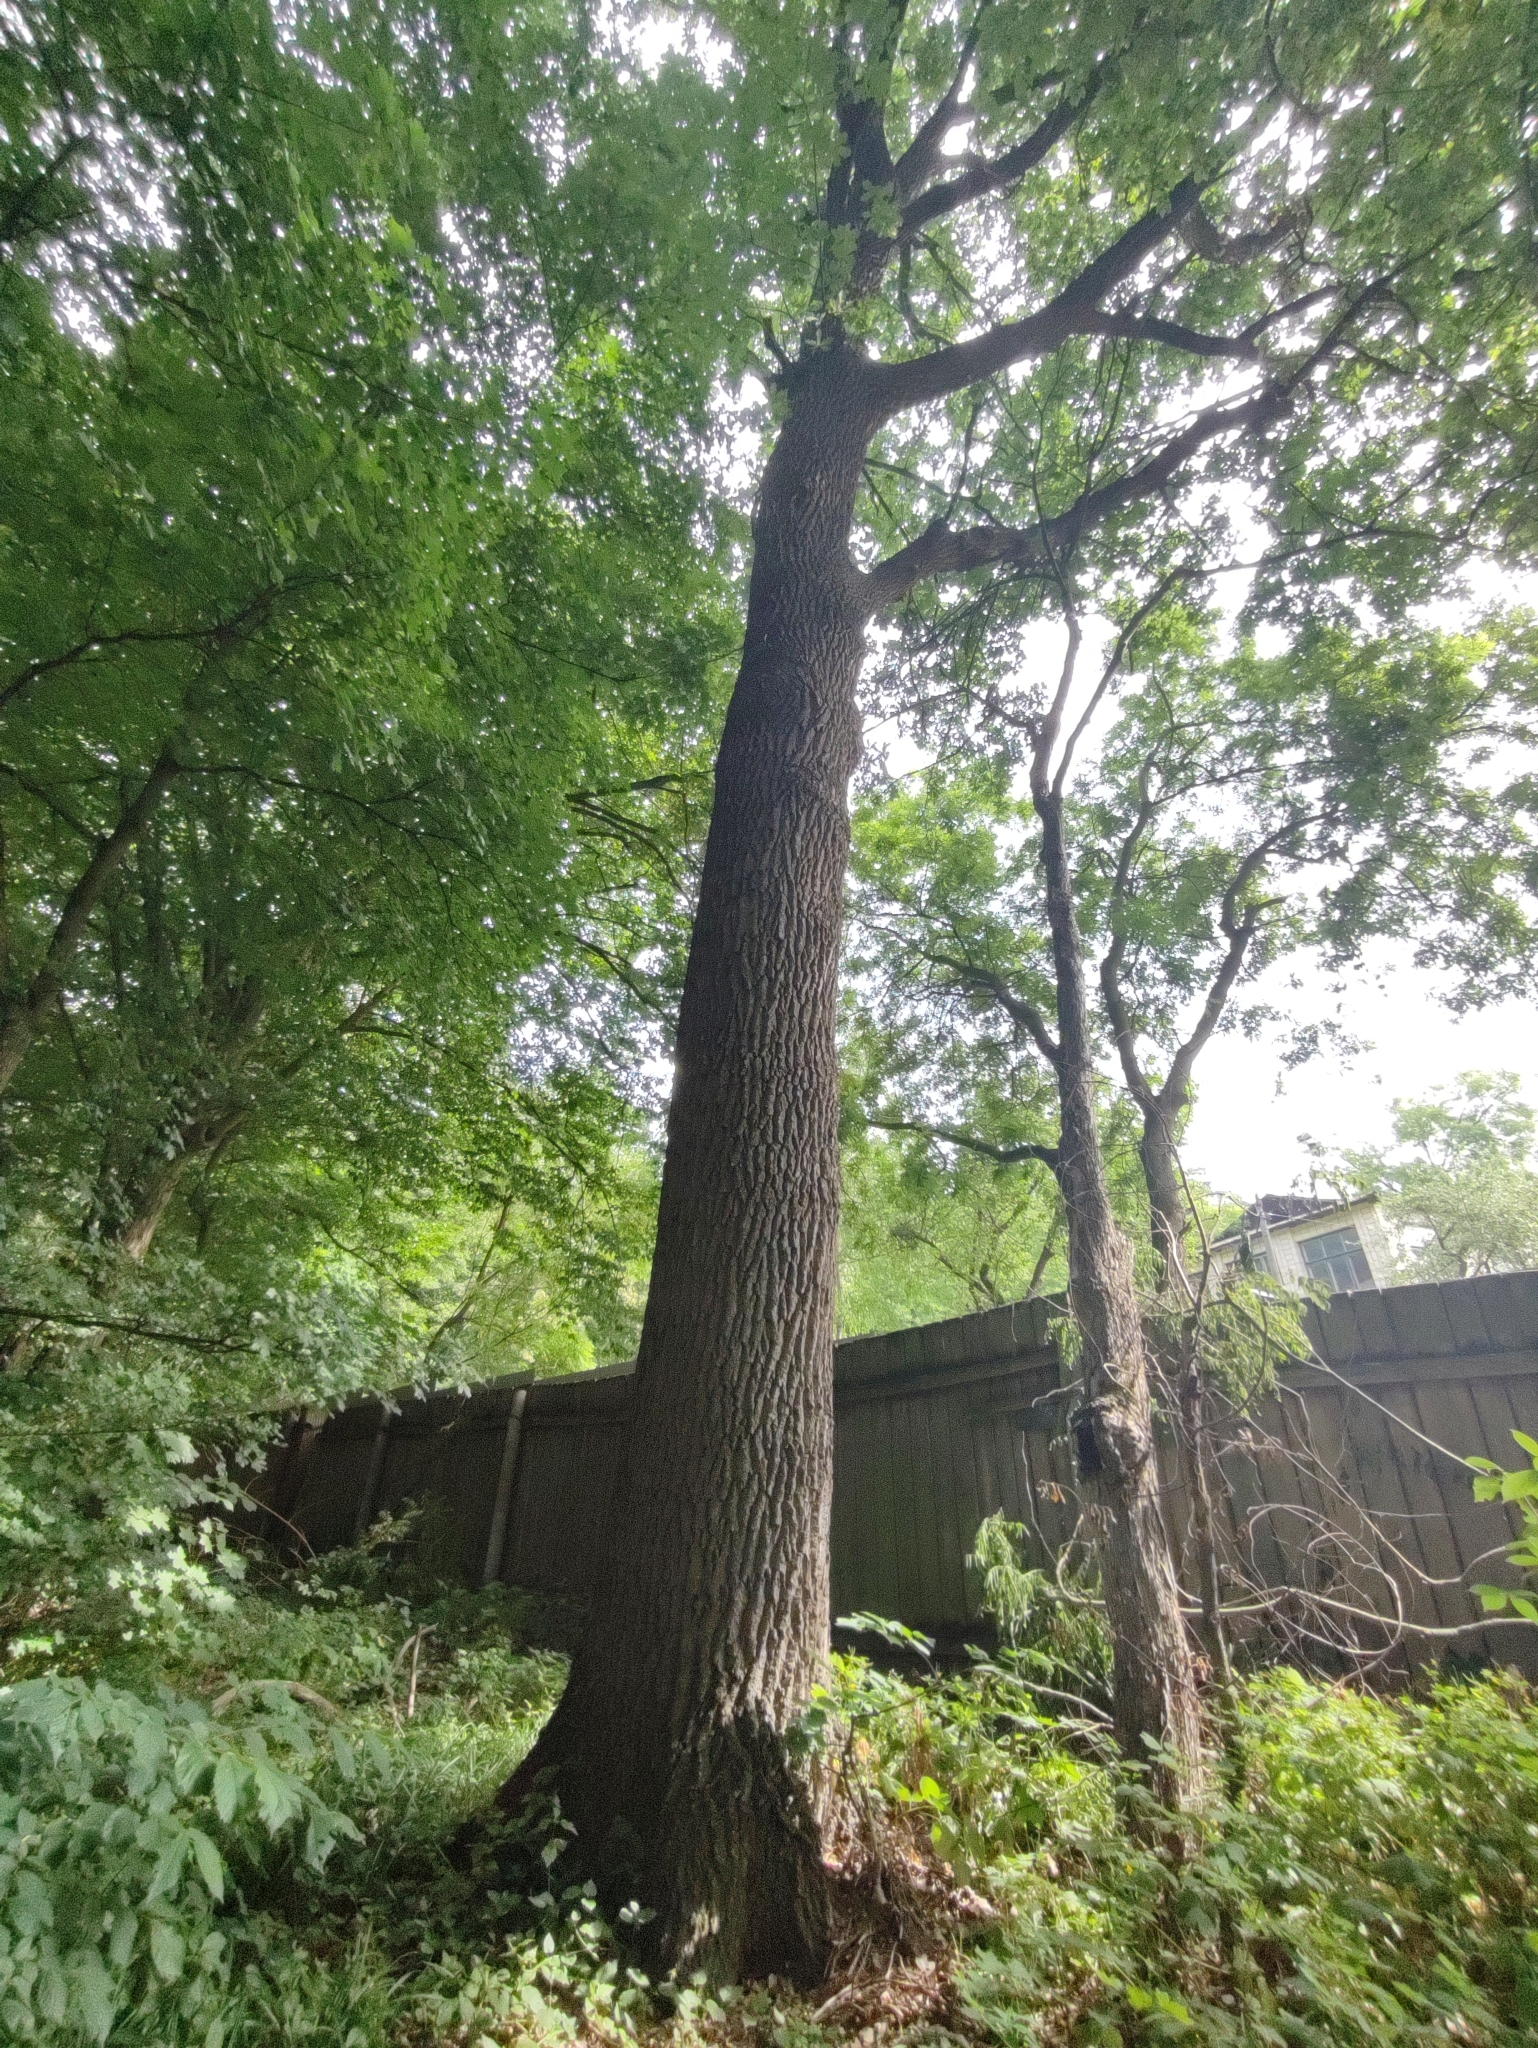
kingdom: Plantae
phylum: Tracheophyta
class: Magnoliopsida
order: Fagales
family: Fagaceae
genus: Quercus
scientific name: Quercus robur
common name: Pedunculate oak
